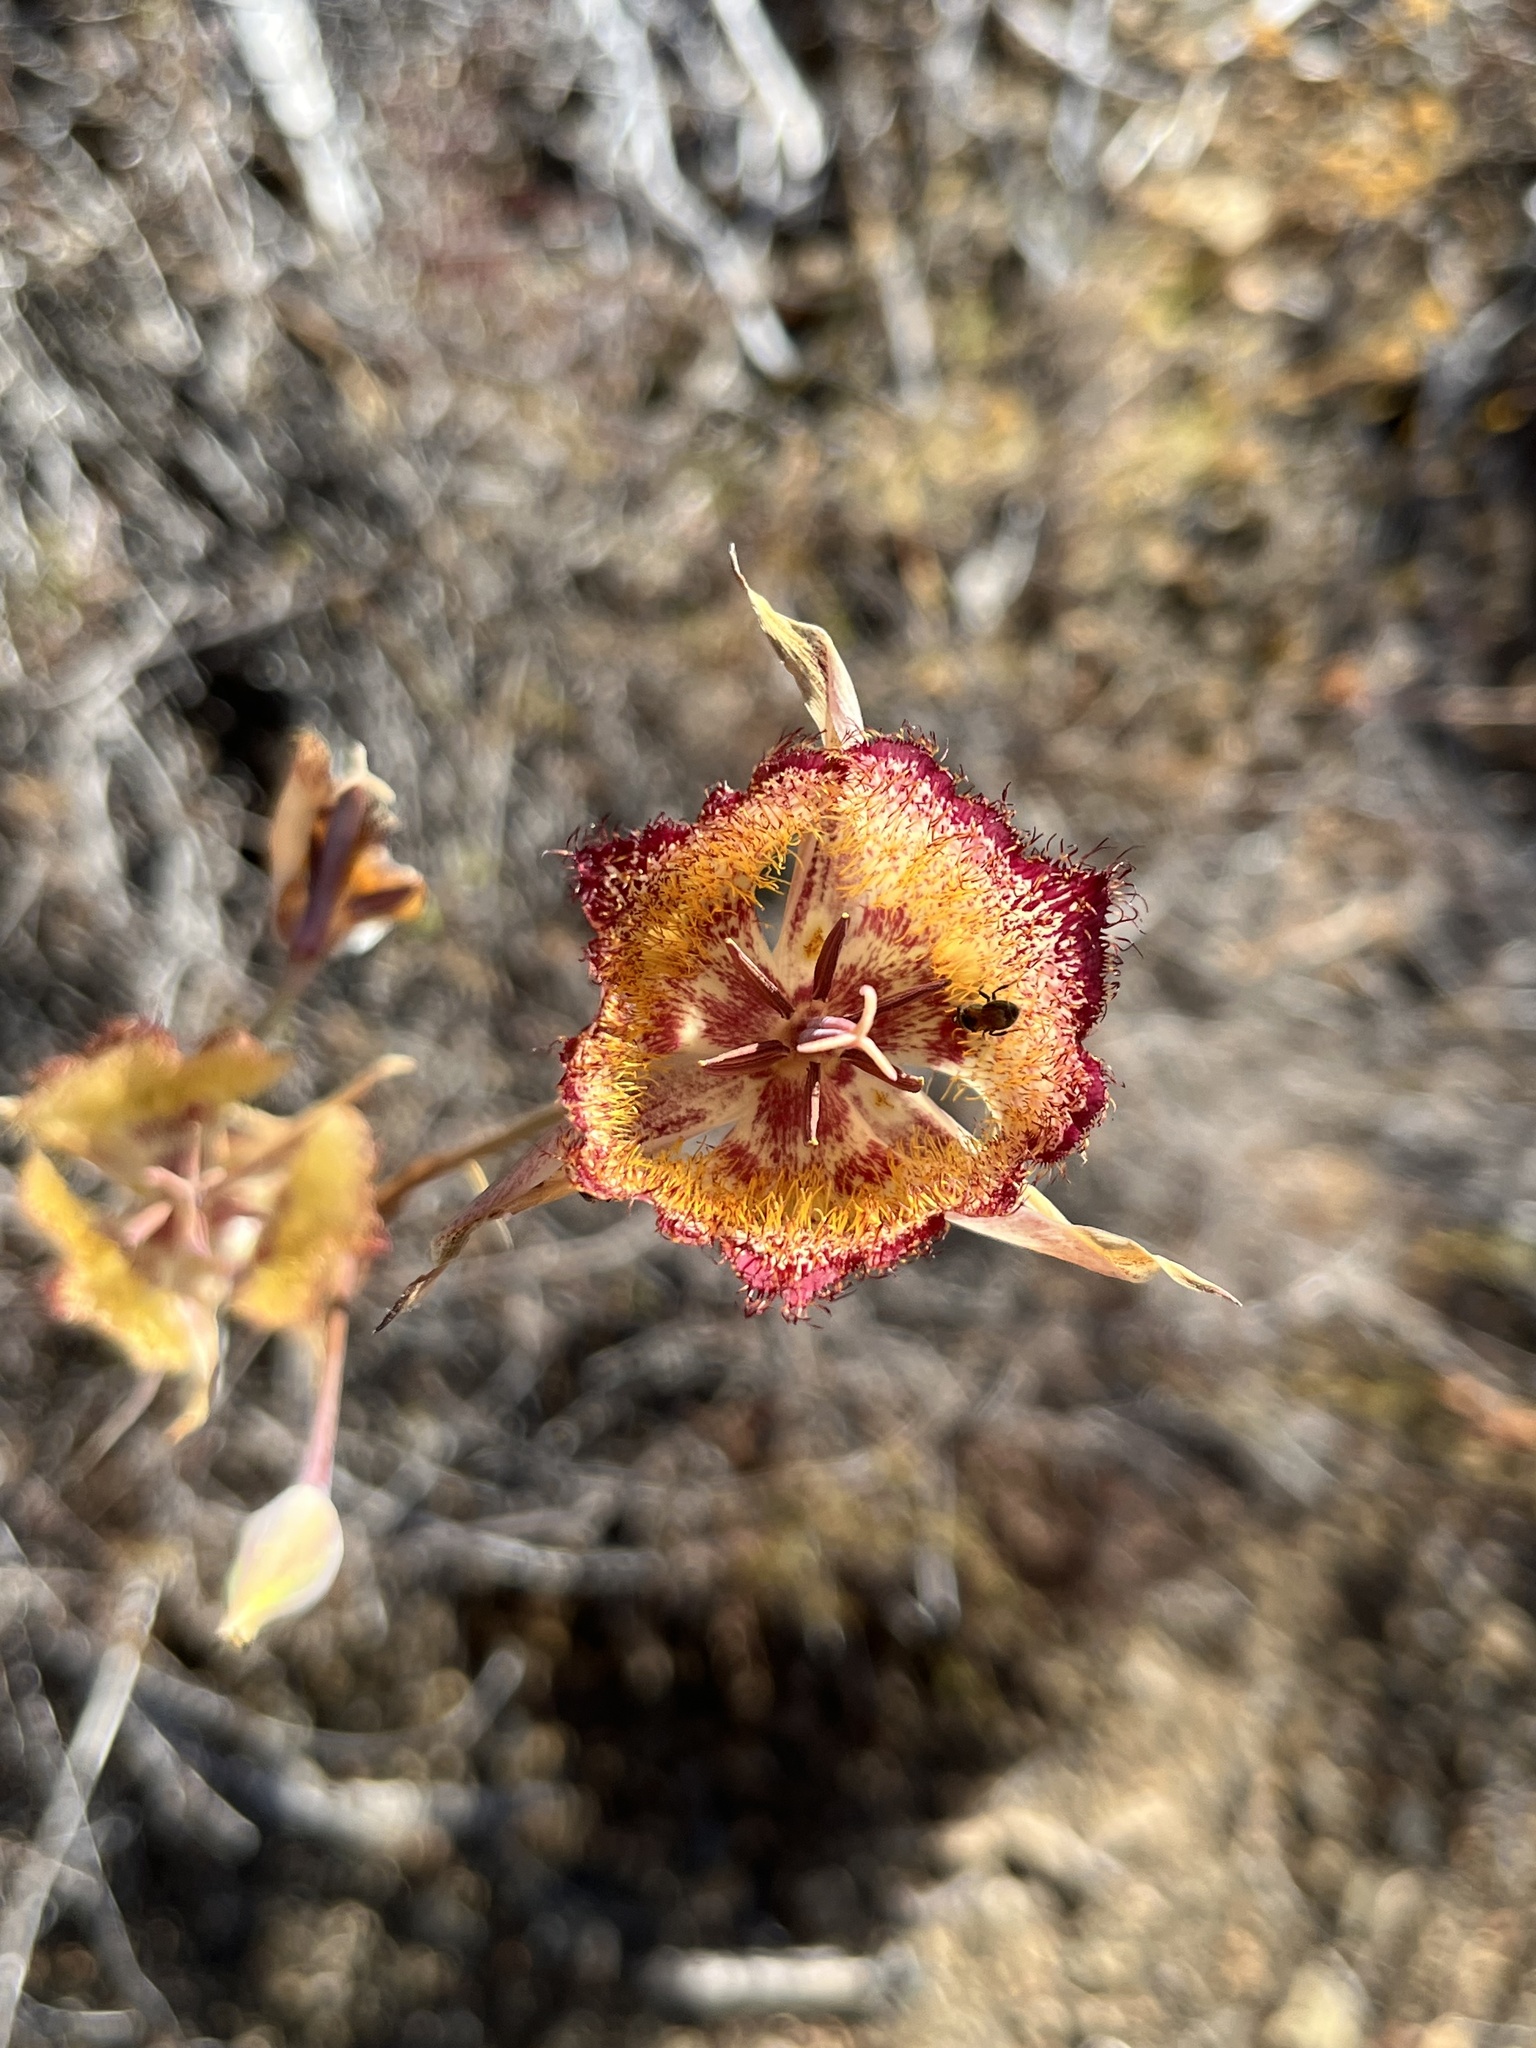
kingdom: Plantae
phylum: Tracheophyta
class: Liliopsida
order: Liliales
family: Liliaceae
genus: Calochortus
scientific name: Calochortus fimbriatus
